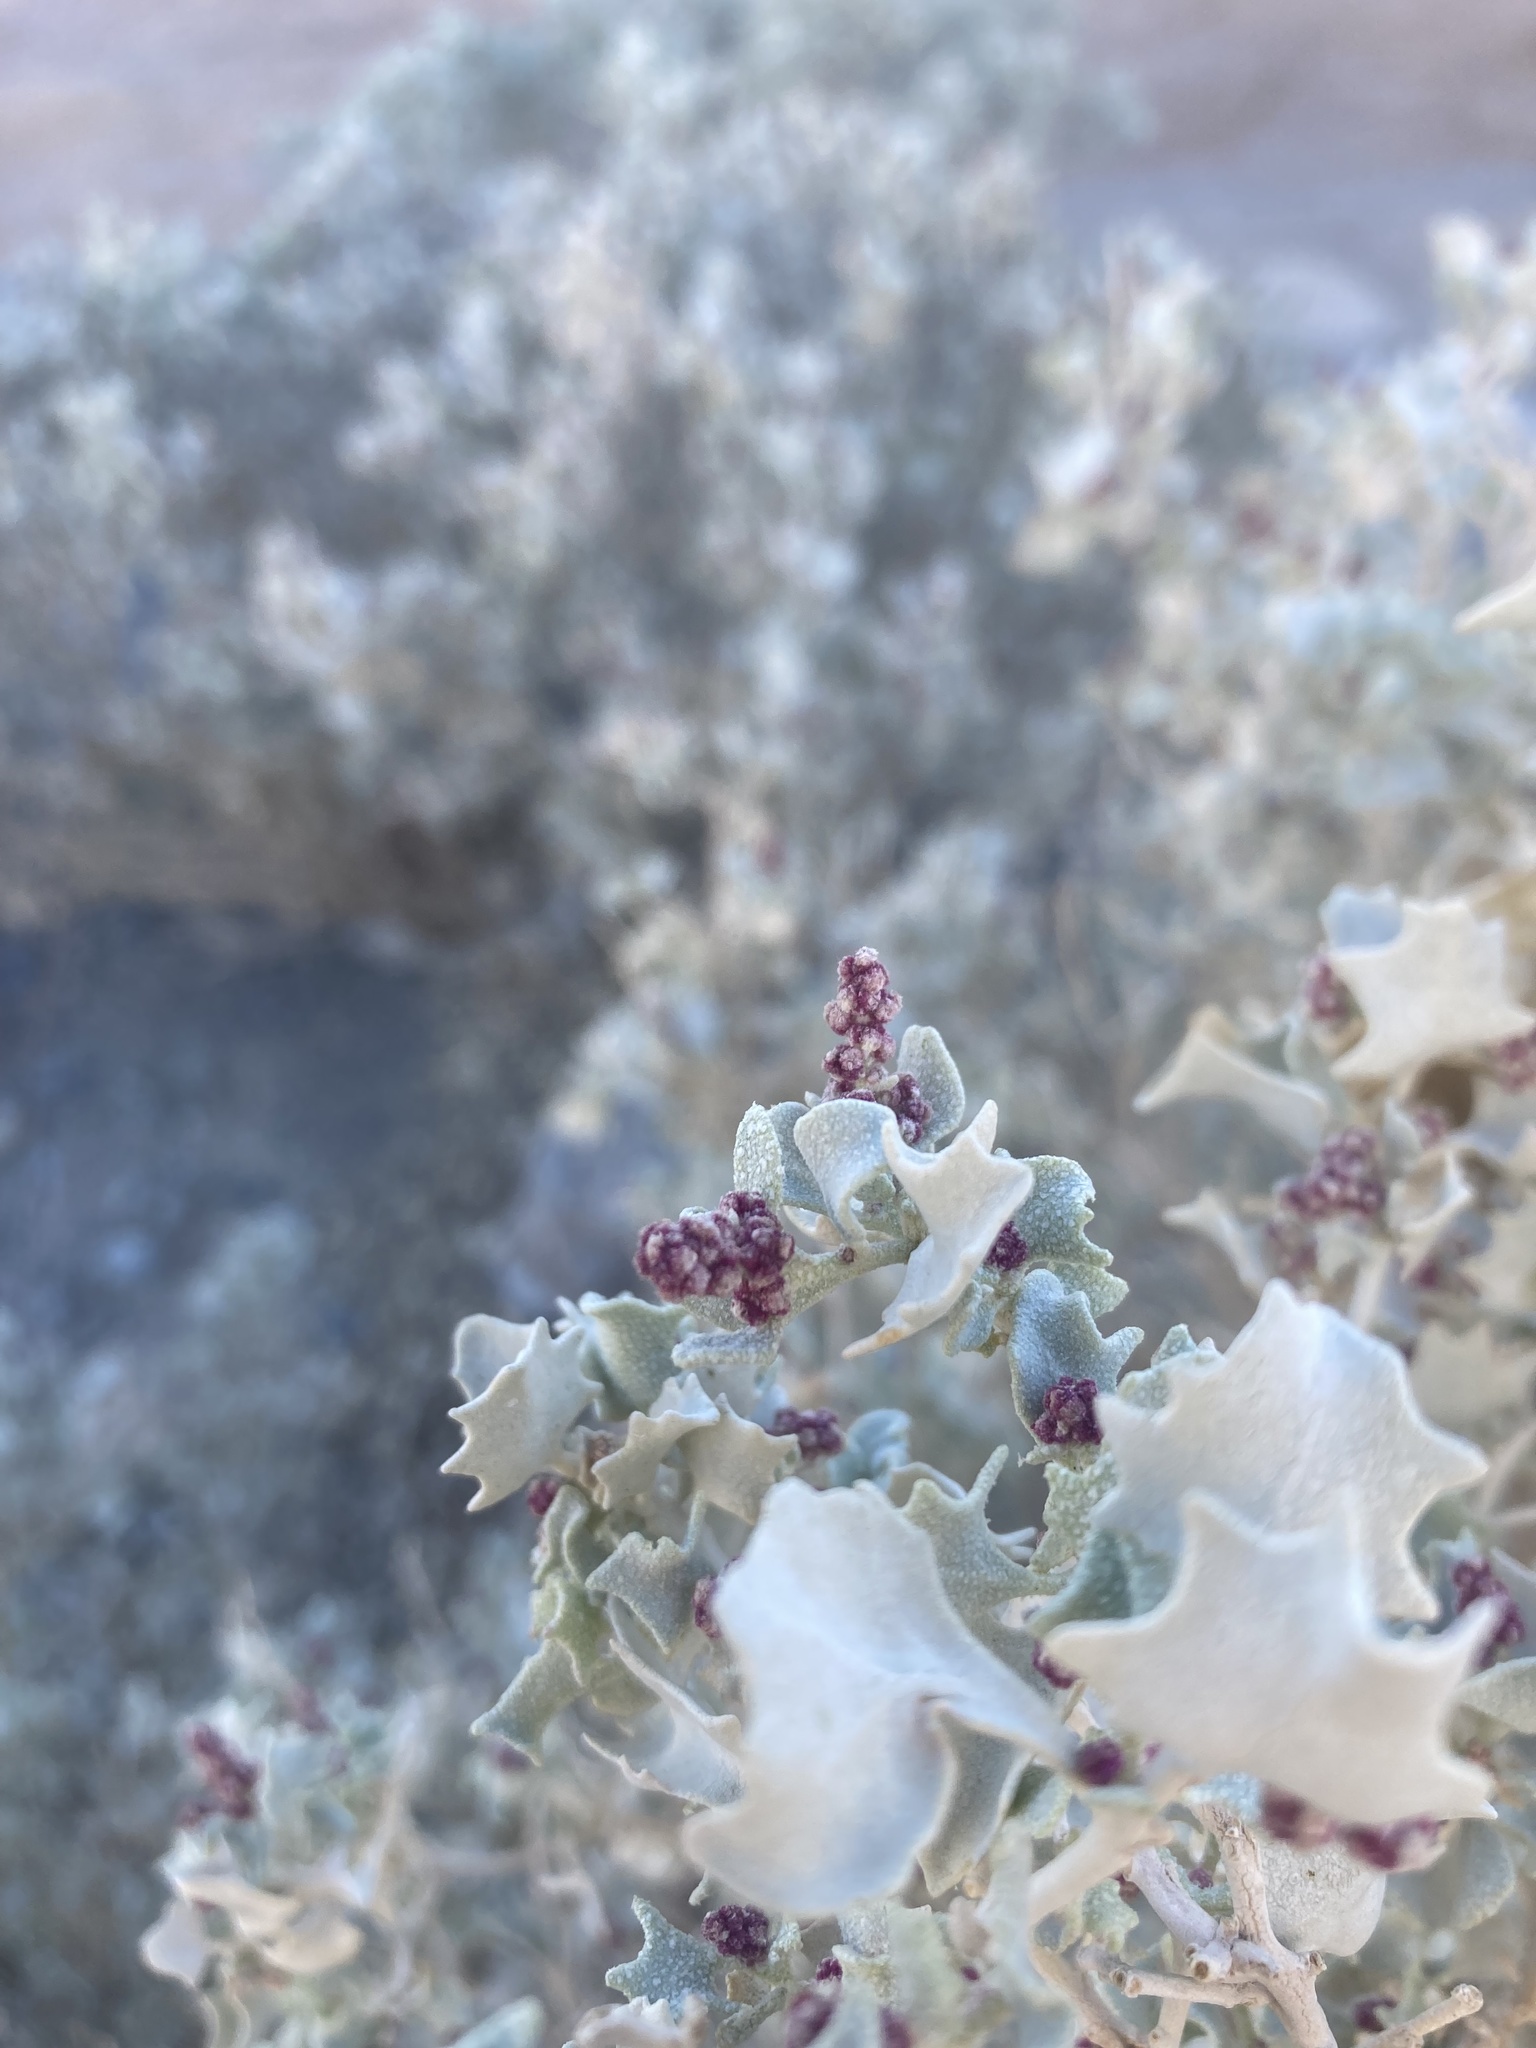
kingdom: Plantae
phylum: Tracheophyta
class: Magnoliopsida
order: Caryophyllales
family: Amaranthaceae
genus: Atriplex
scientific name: Atriplex hymenelytra
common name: Desert-holly
